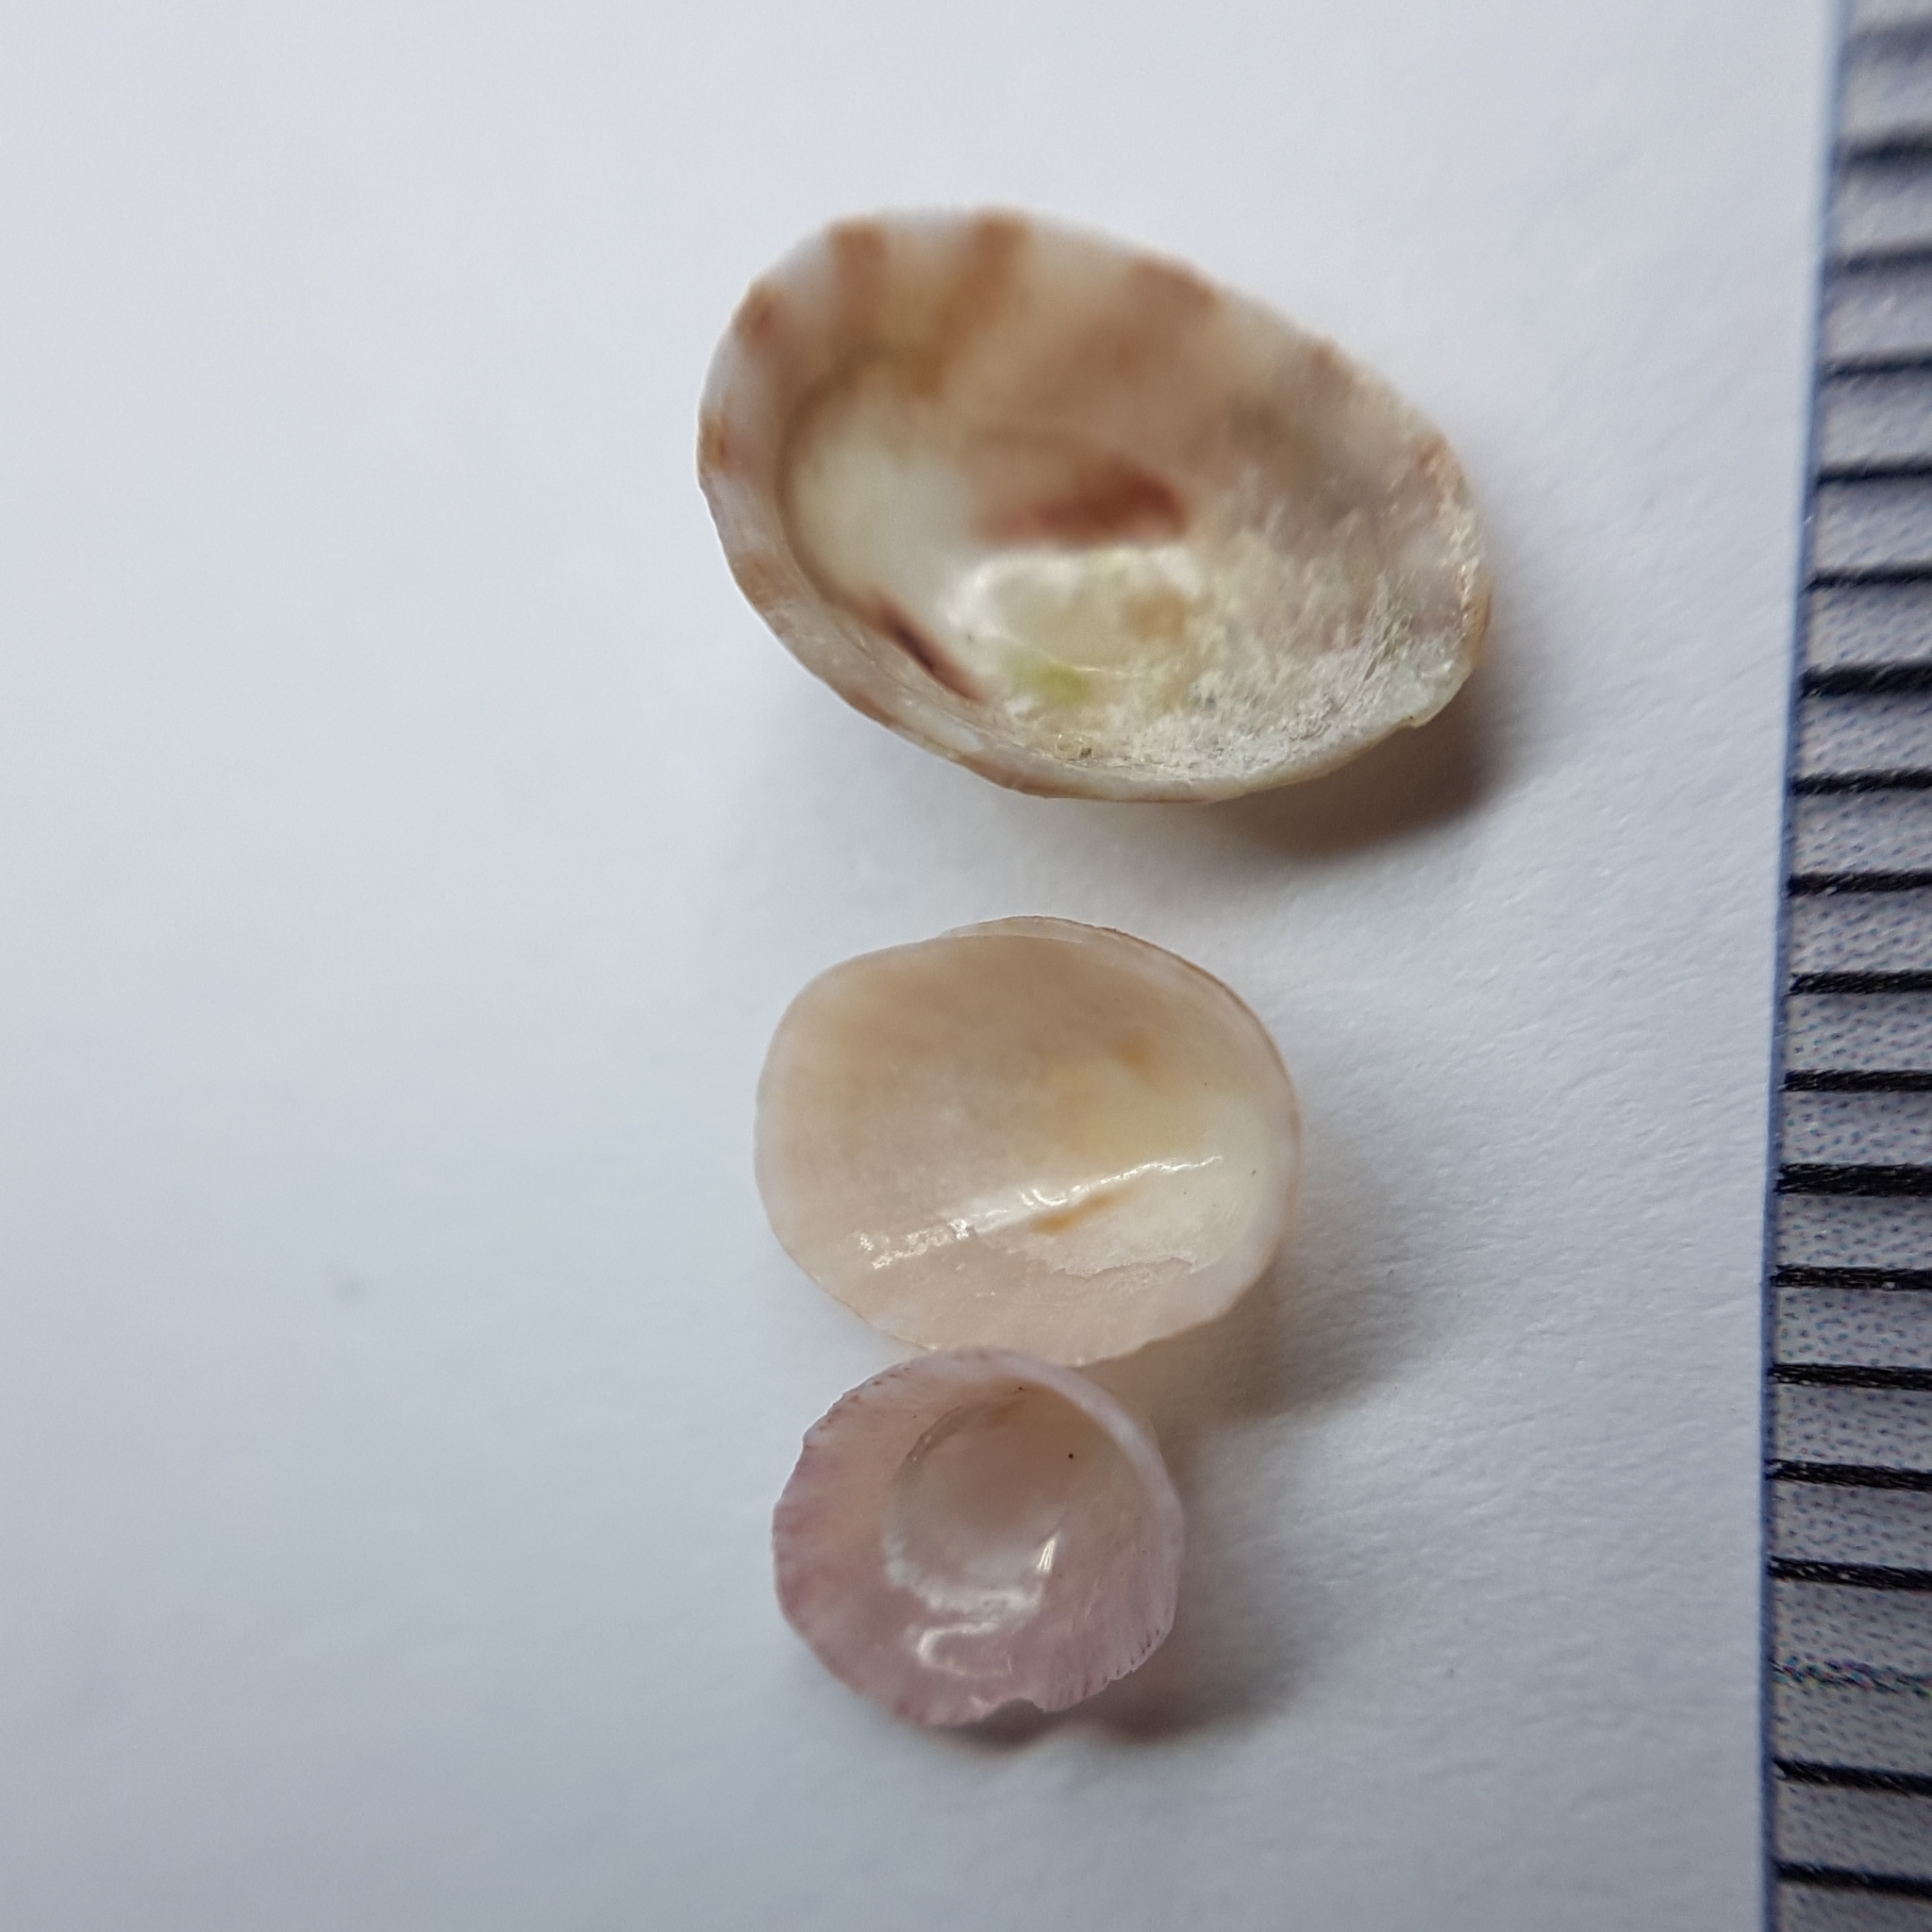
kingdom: Animalia
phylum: Mollusca
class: Gastropoda
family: Lottiidae
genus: Tectura
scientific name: Tectura virginea
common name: White tortoiseshell limpet
